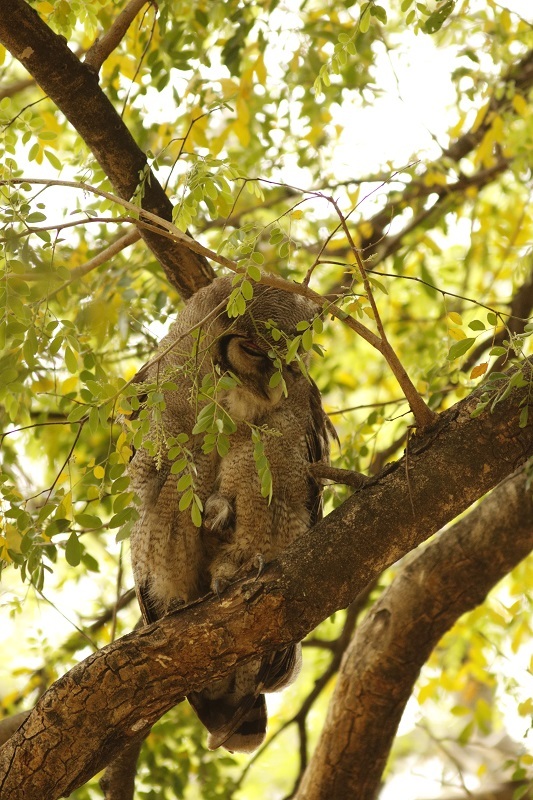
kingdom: Animalia
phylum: Chordata
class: Aves
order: Strigiformes
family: Strigidae
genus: Bubo
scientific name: Bubo lacteus
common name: Verreaux's eagle-owl
